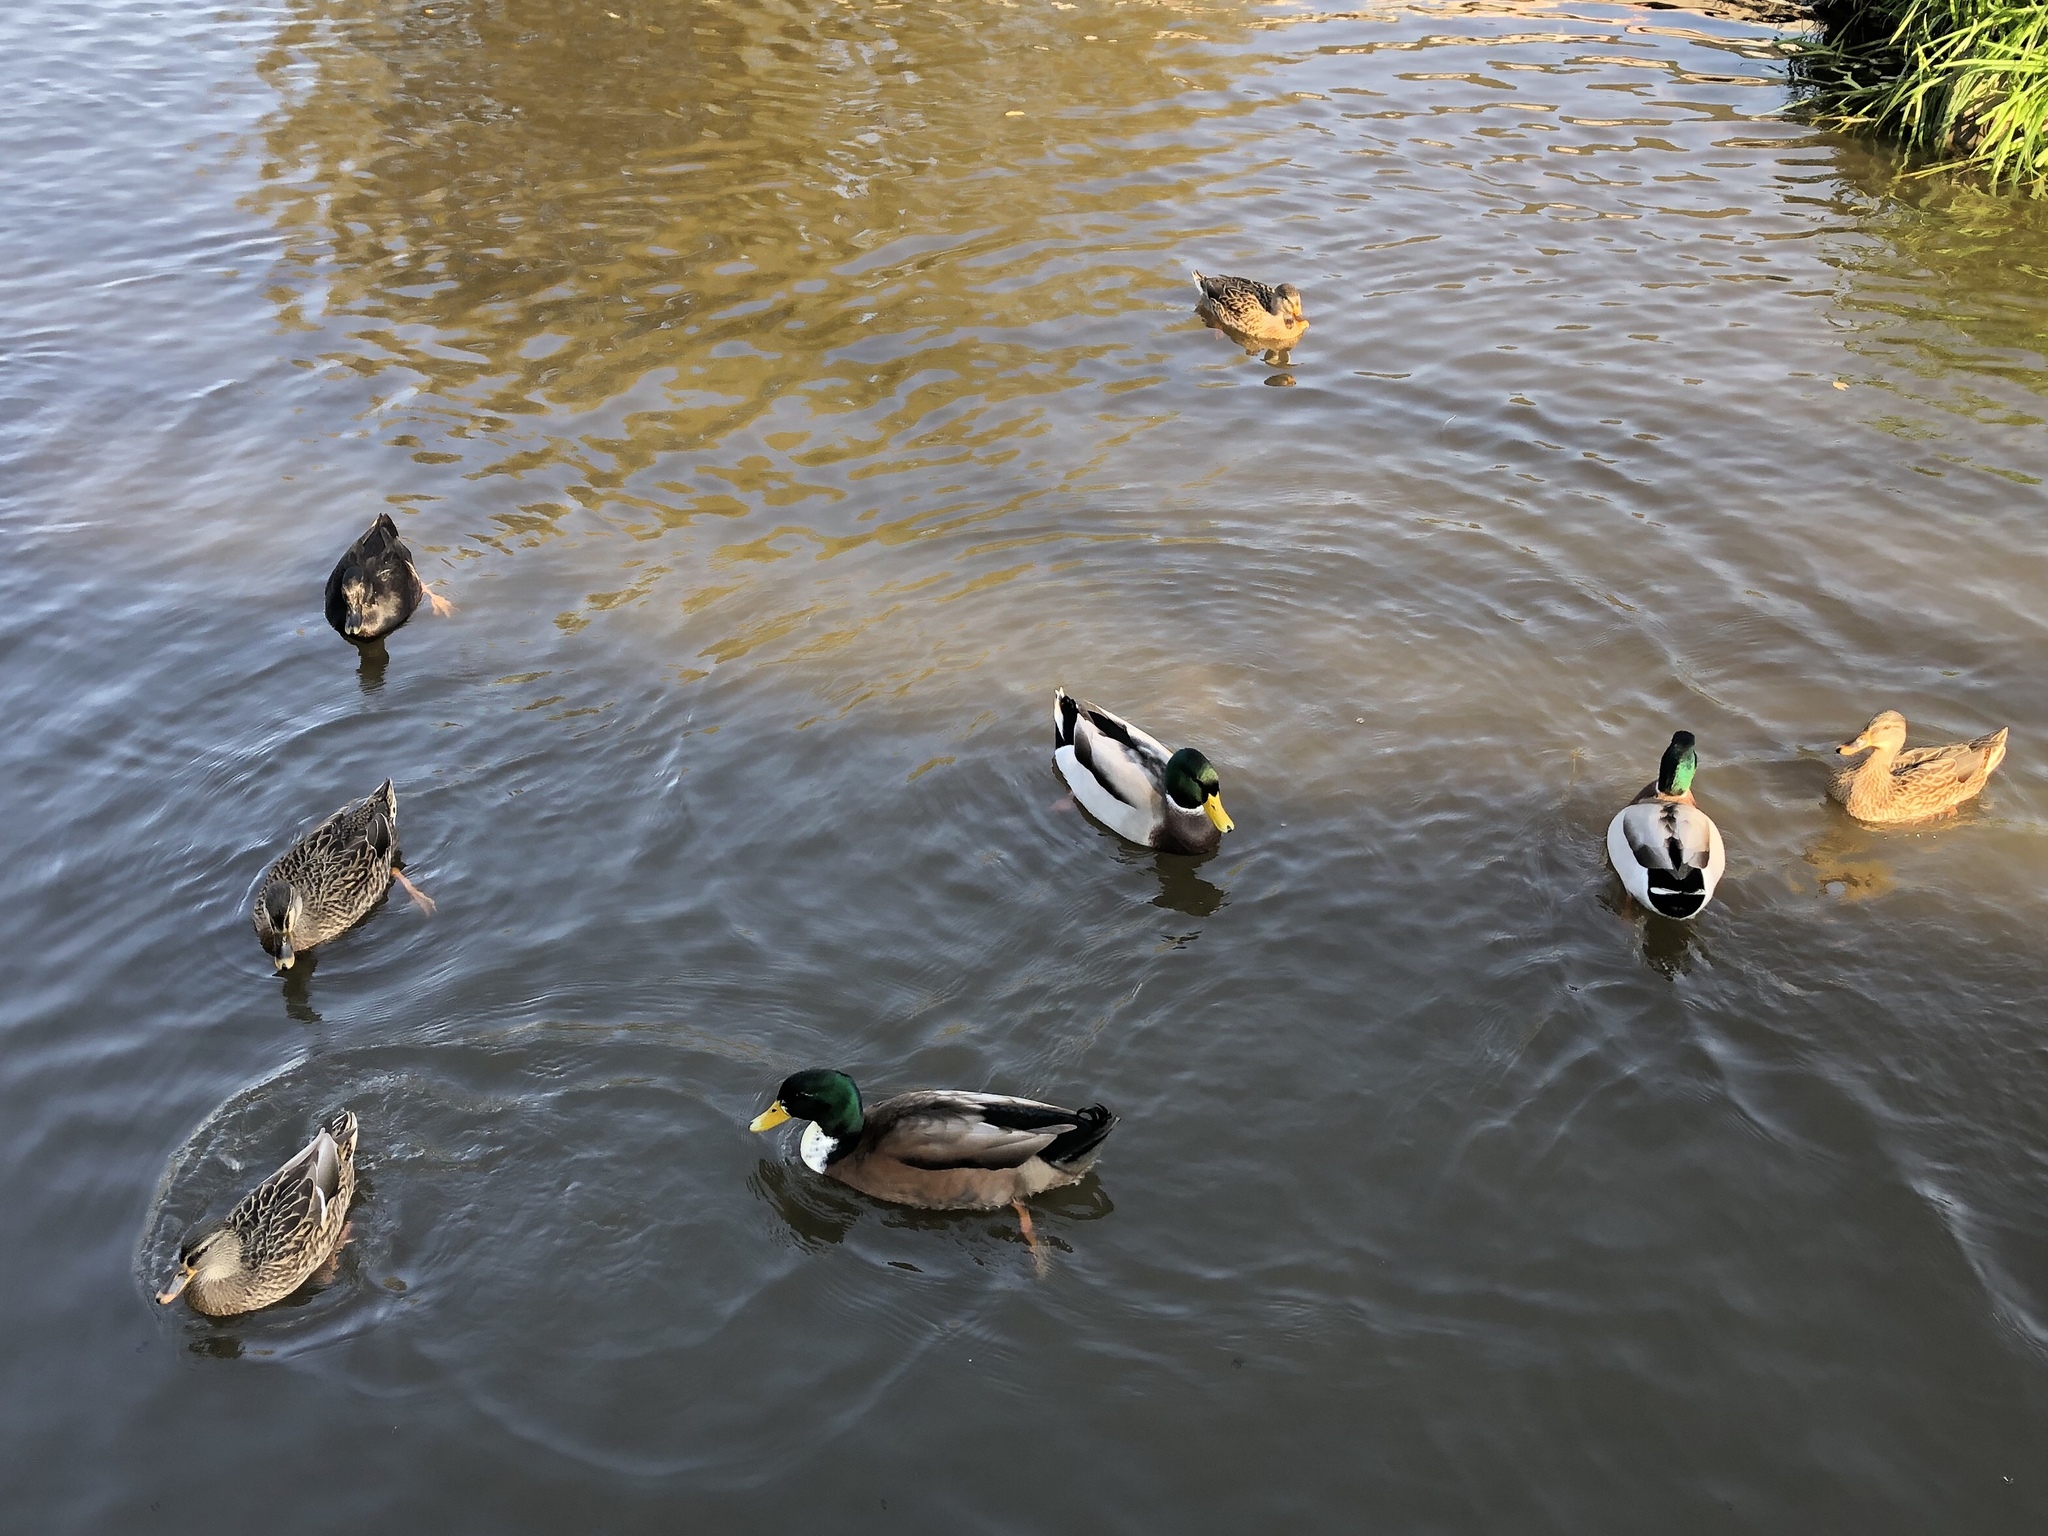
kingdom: Animalia
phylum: Chordata
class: Aves
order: Anseriformes
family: Anatidae
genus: Anas
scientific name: Anas platyrhynchos
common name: Mallard
